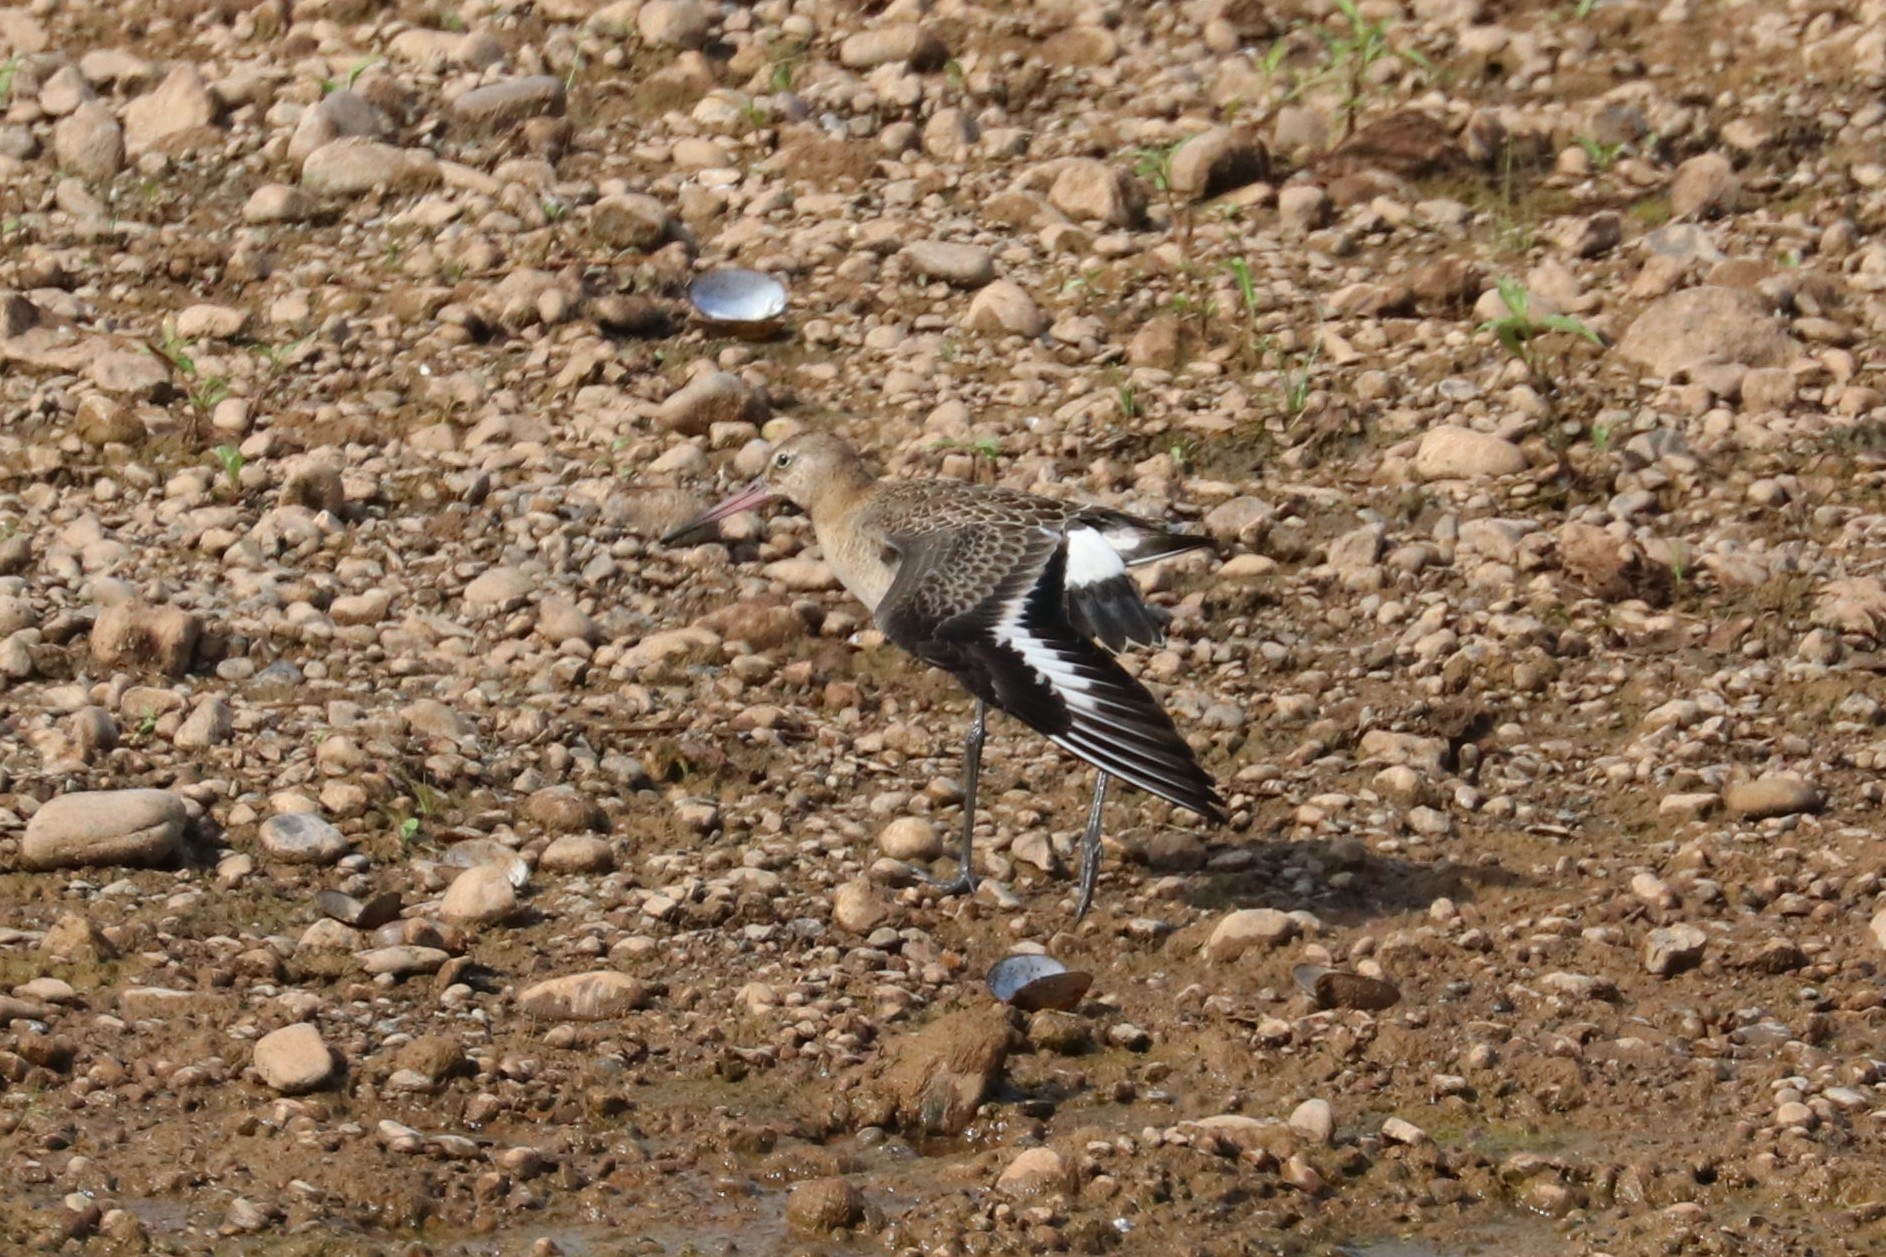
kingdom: Animalia
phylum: Chordata
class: Aves
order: Charadriiformes
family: Scolopacidae
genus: Limosa
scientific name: Limosa limosa
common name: Black-tailed godwit
